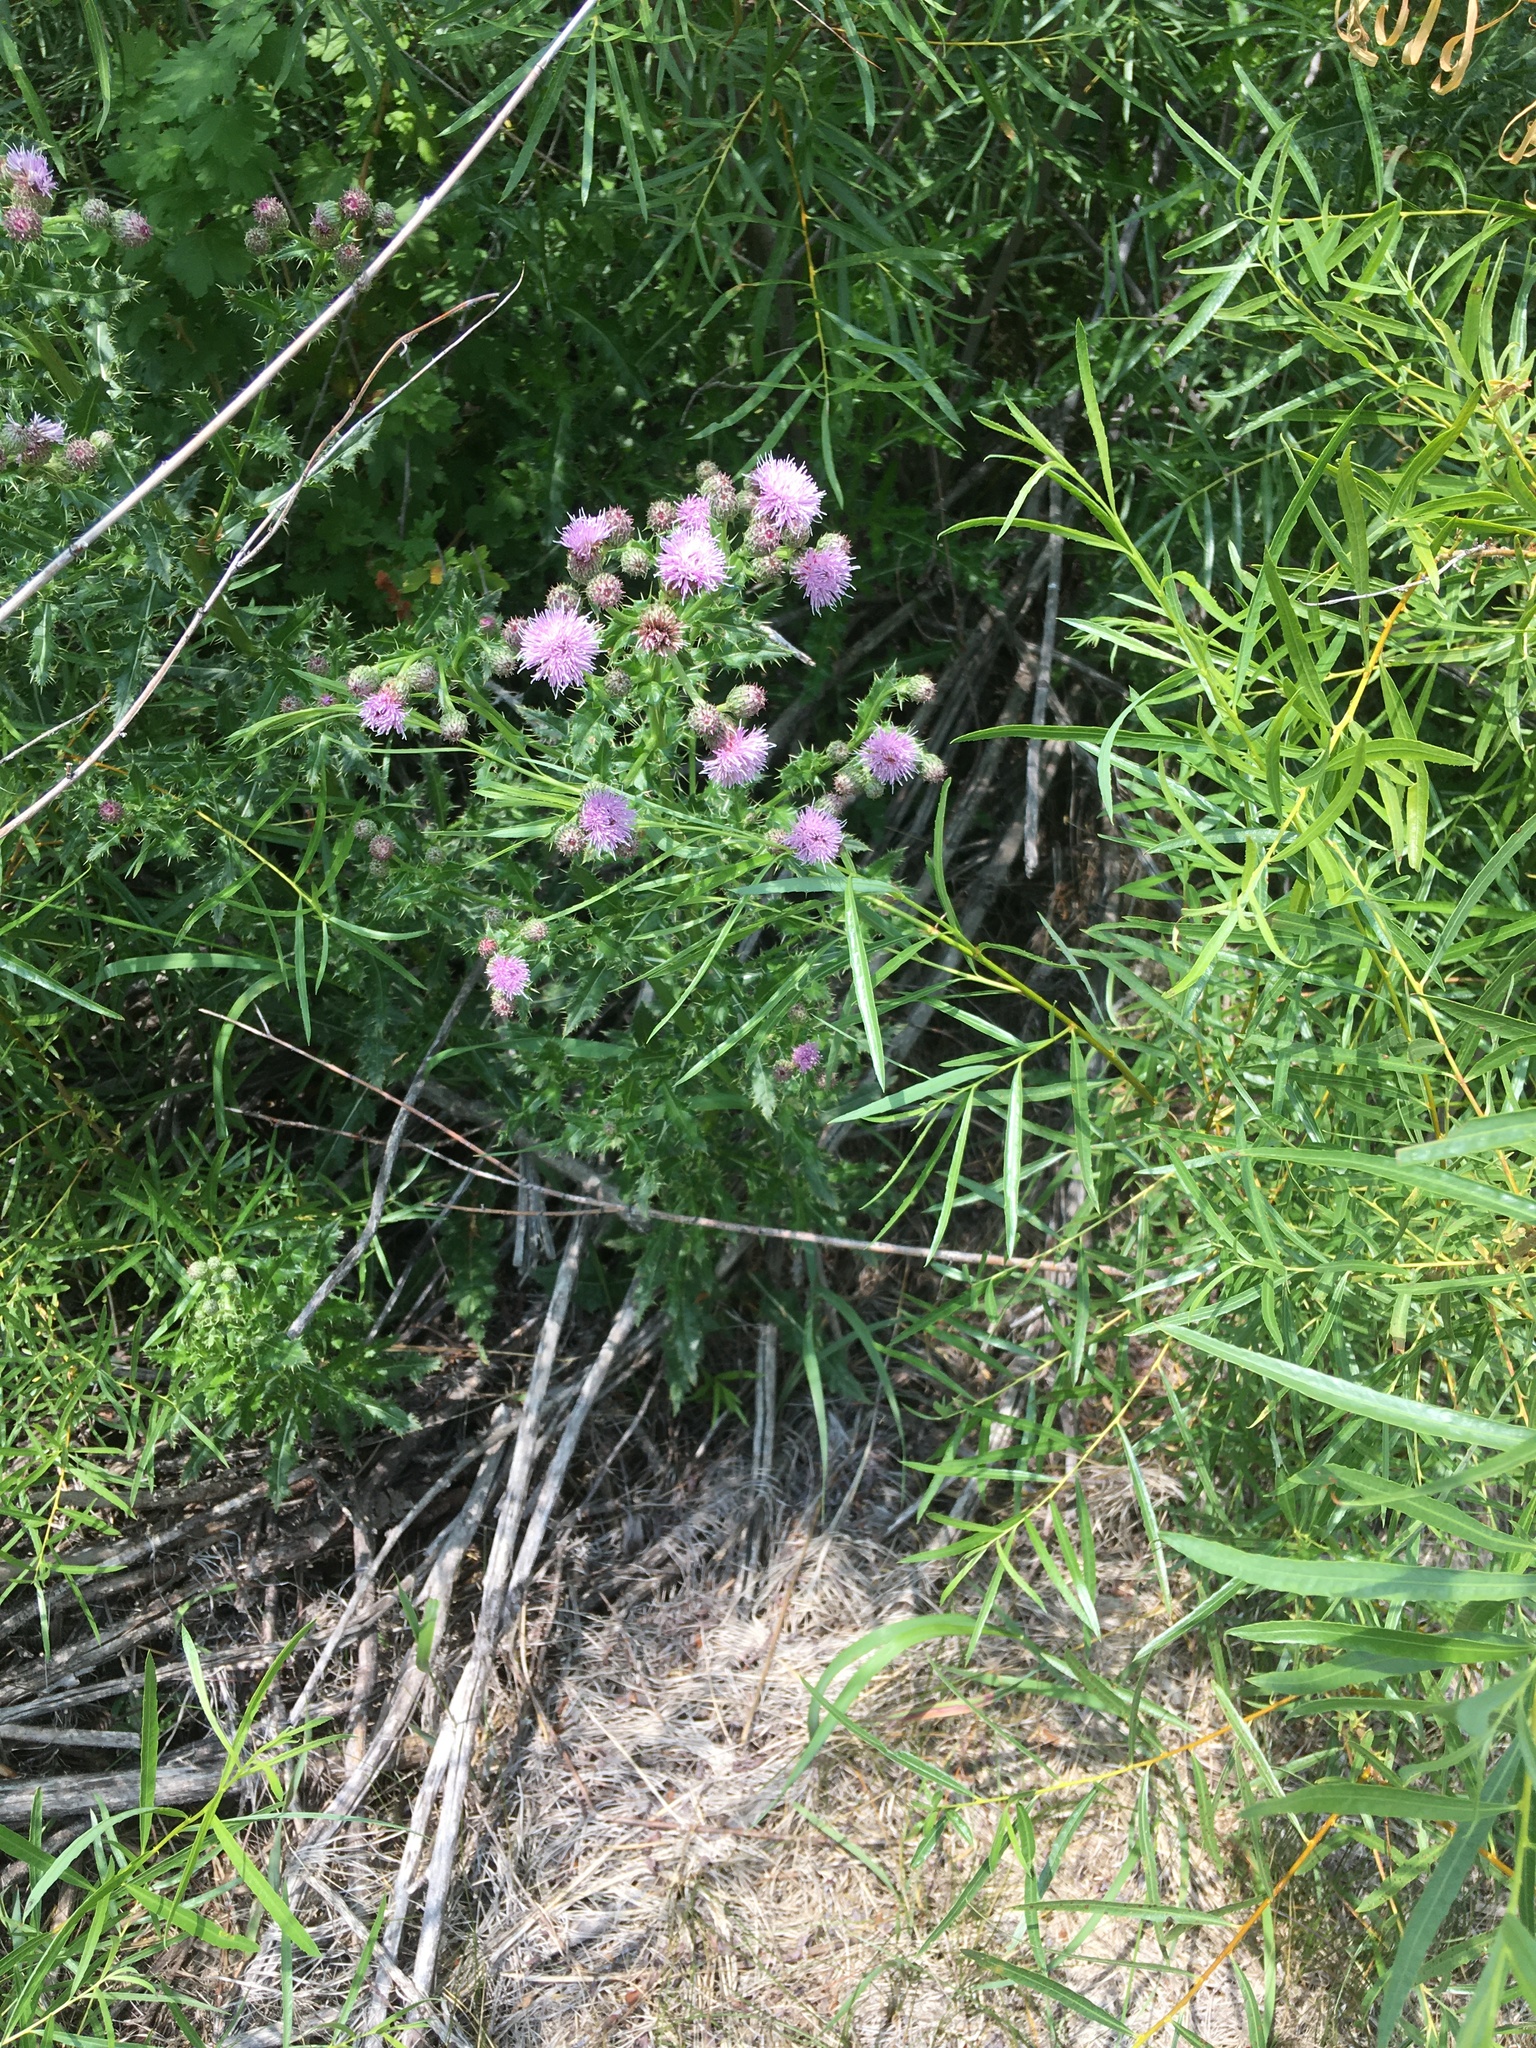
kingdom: Plantae
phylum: Tracheophyta
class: Magnoliopsida
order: Asterales
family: Asteraceae
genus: Cirsium
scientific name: Cirsium arvense
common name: Creeping thistle
